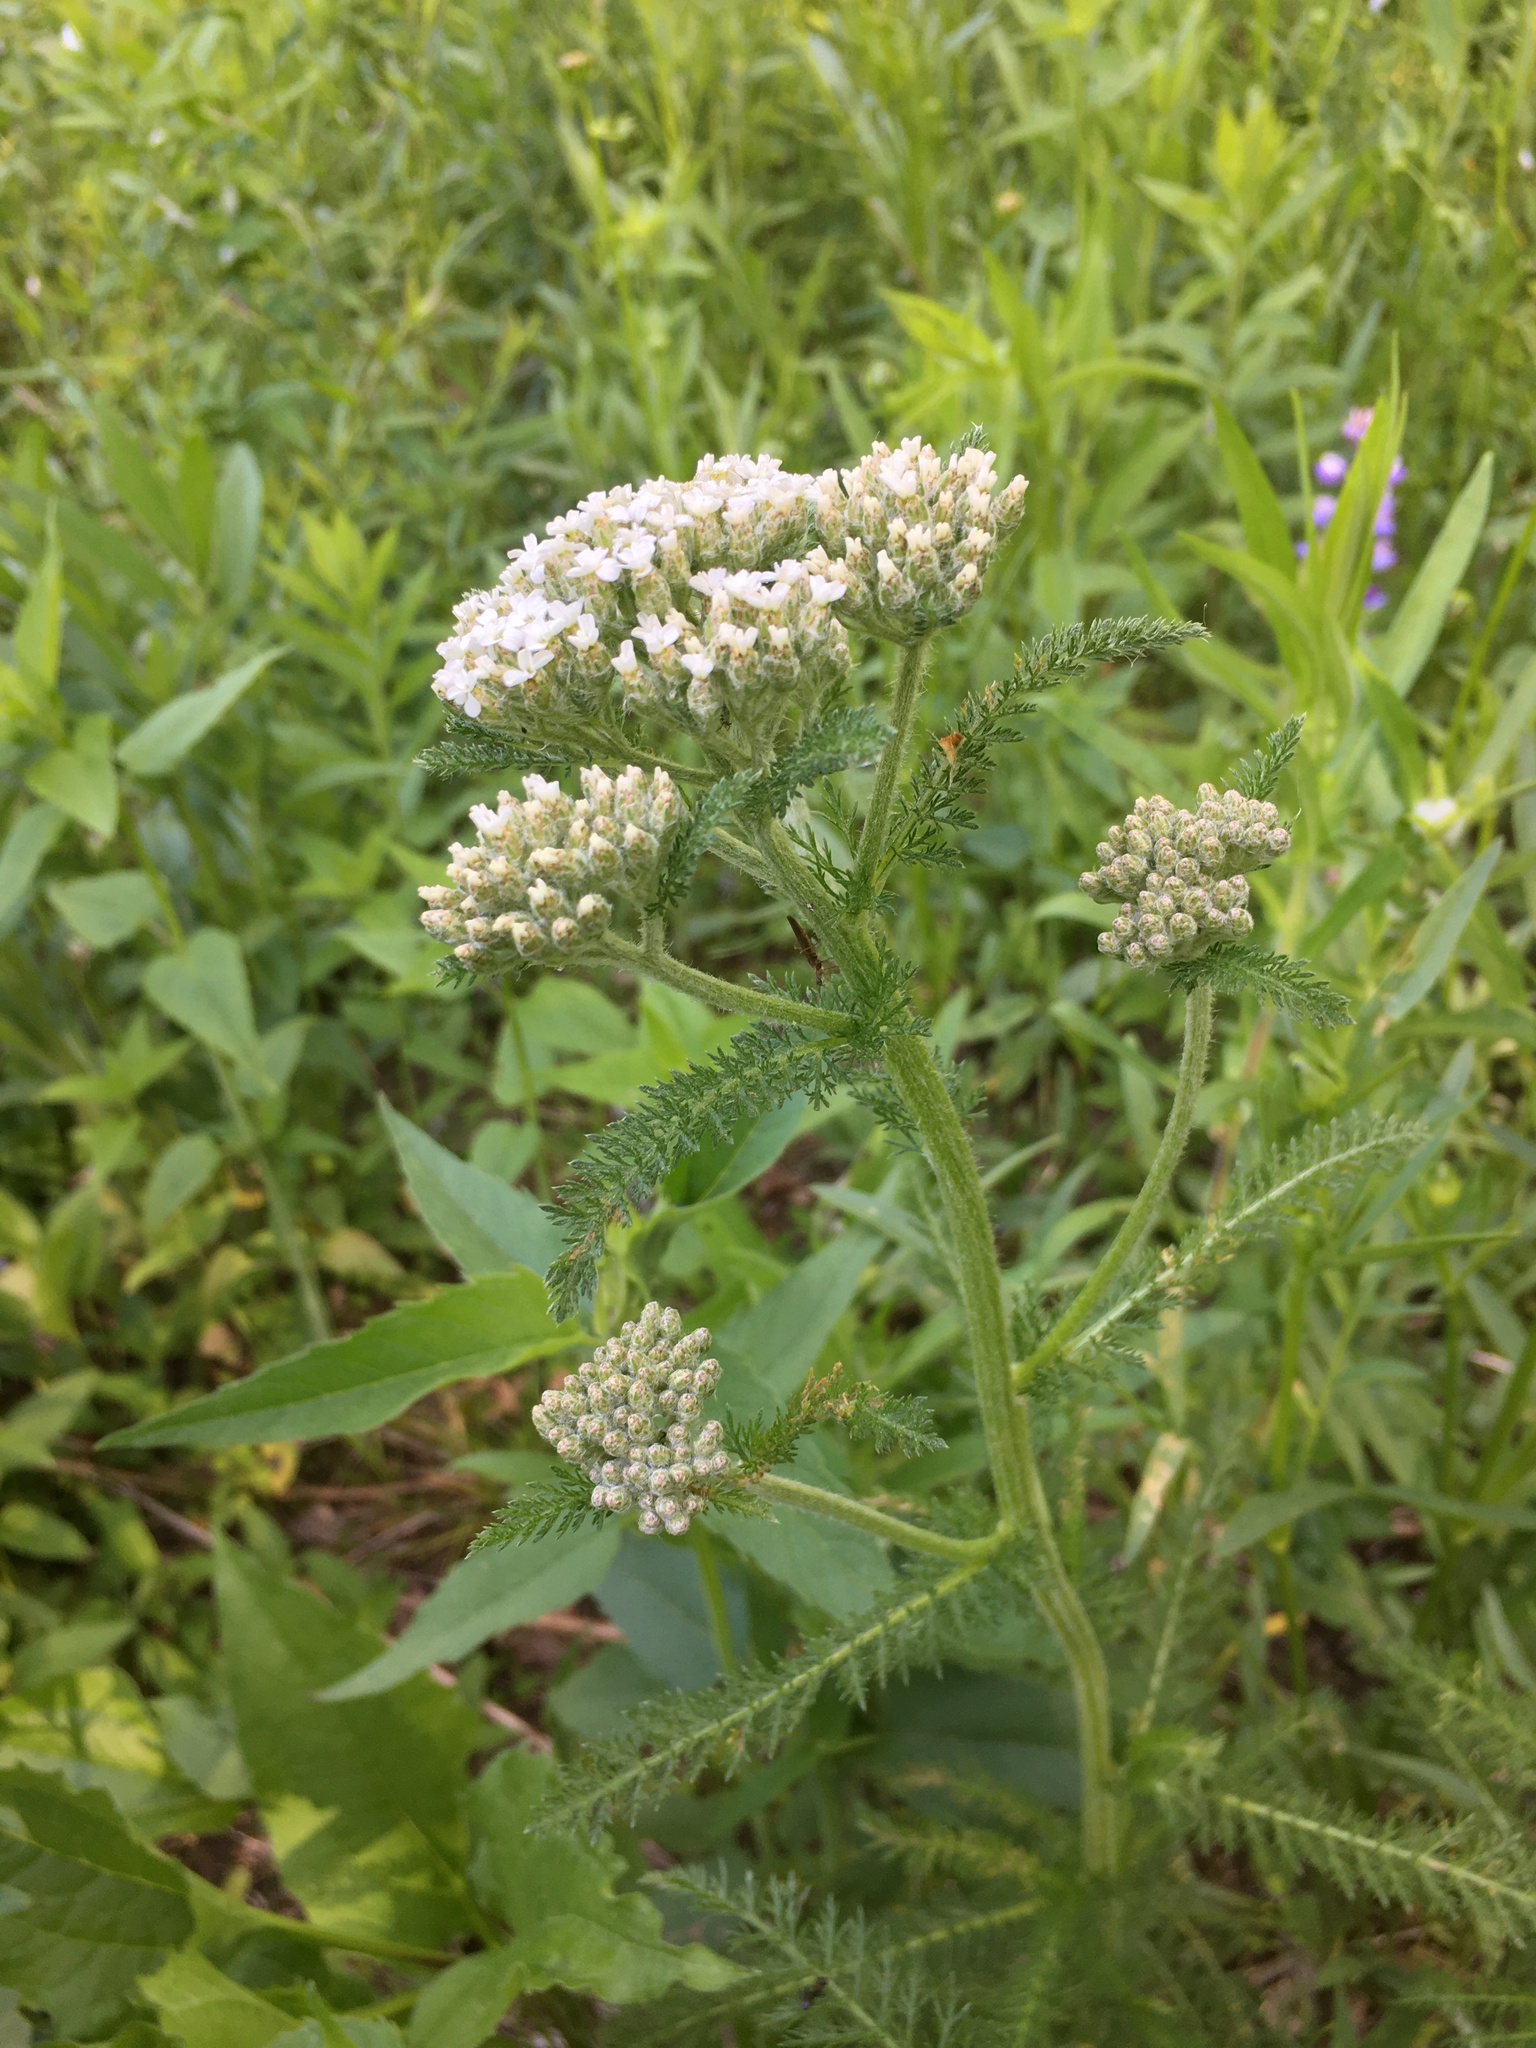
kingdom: Plantae
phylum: Tracheophyta
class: Magnoliopsida
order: Asterales
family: Asteraceae
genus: Achillea
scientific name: Achillea millefolium
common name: Yarrow
